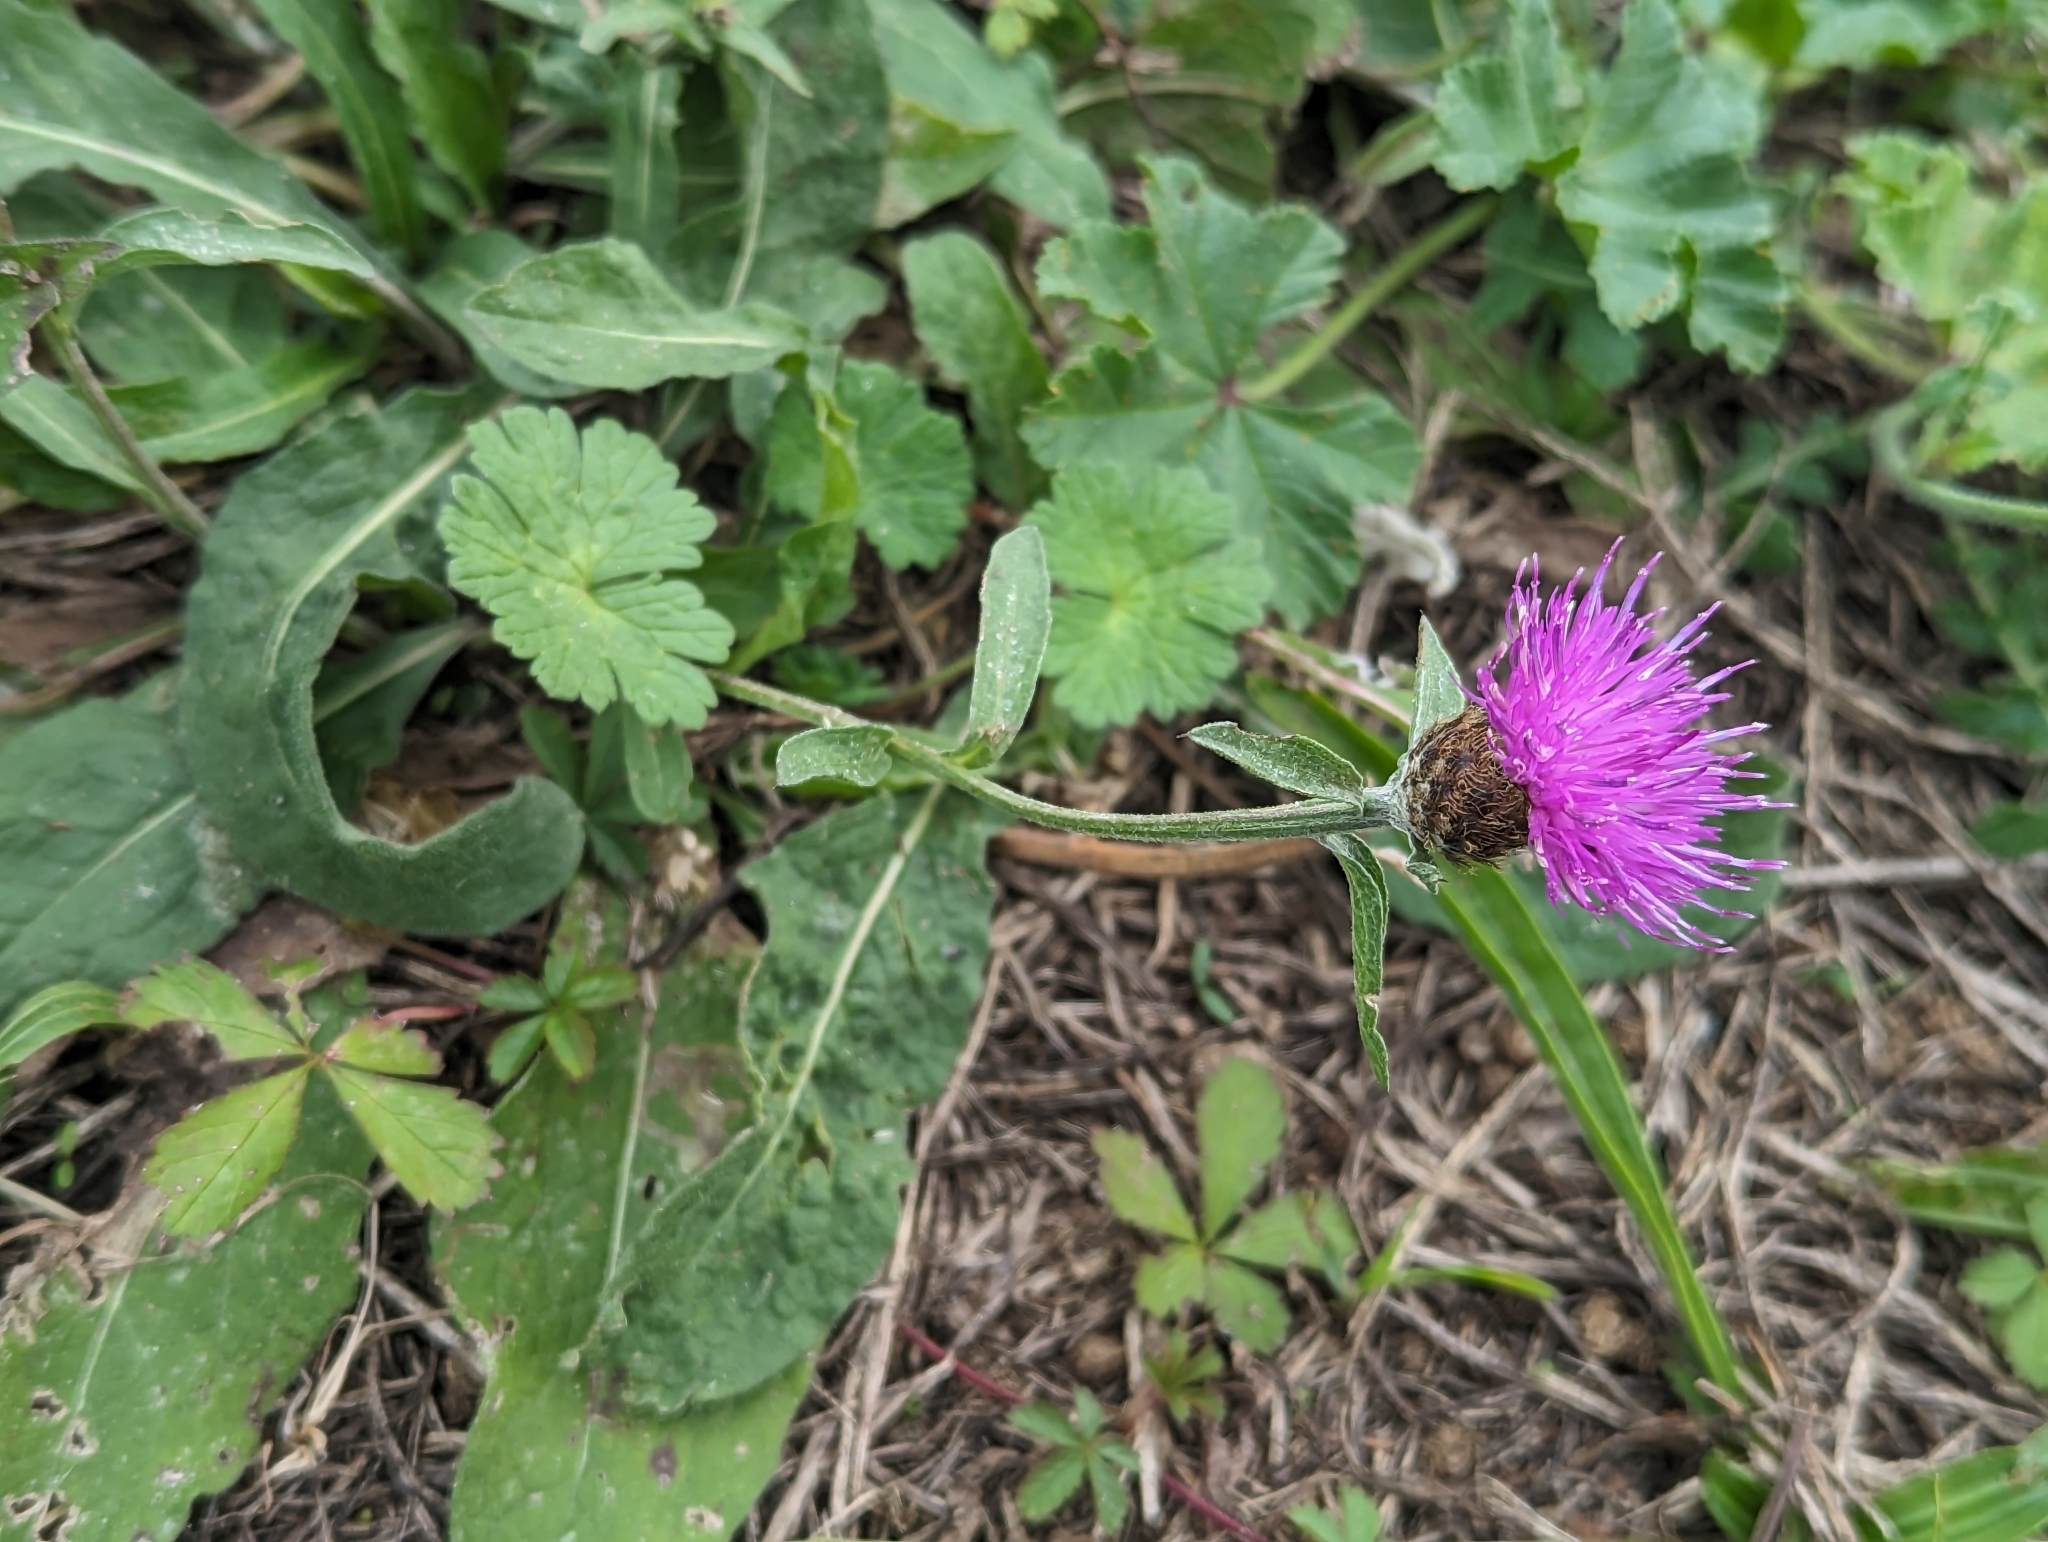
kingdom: Plantae
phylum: Tracheophyta
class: Magnoliopsida
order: Asterales
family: Asteraceae
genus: Centaurea
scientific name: Centaurea nigra
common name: Lesser knapweed
